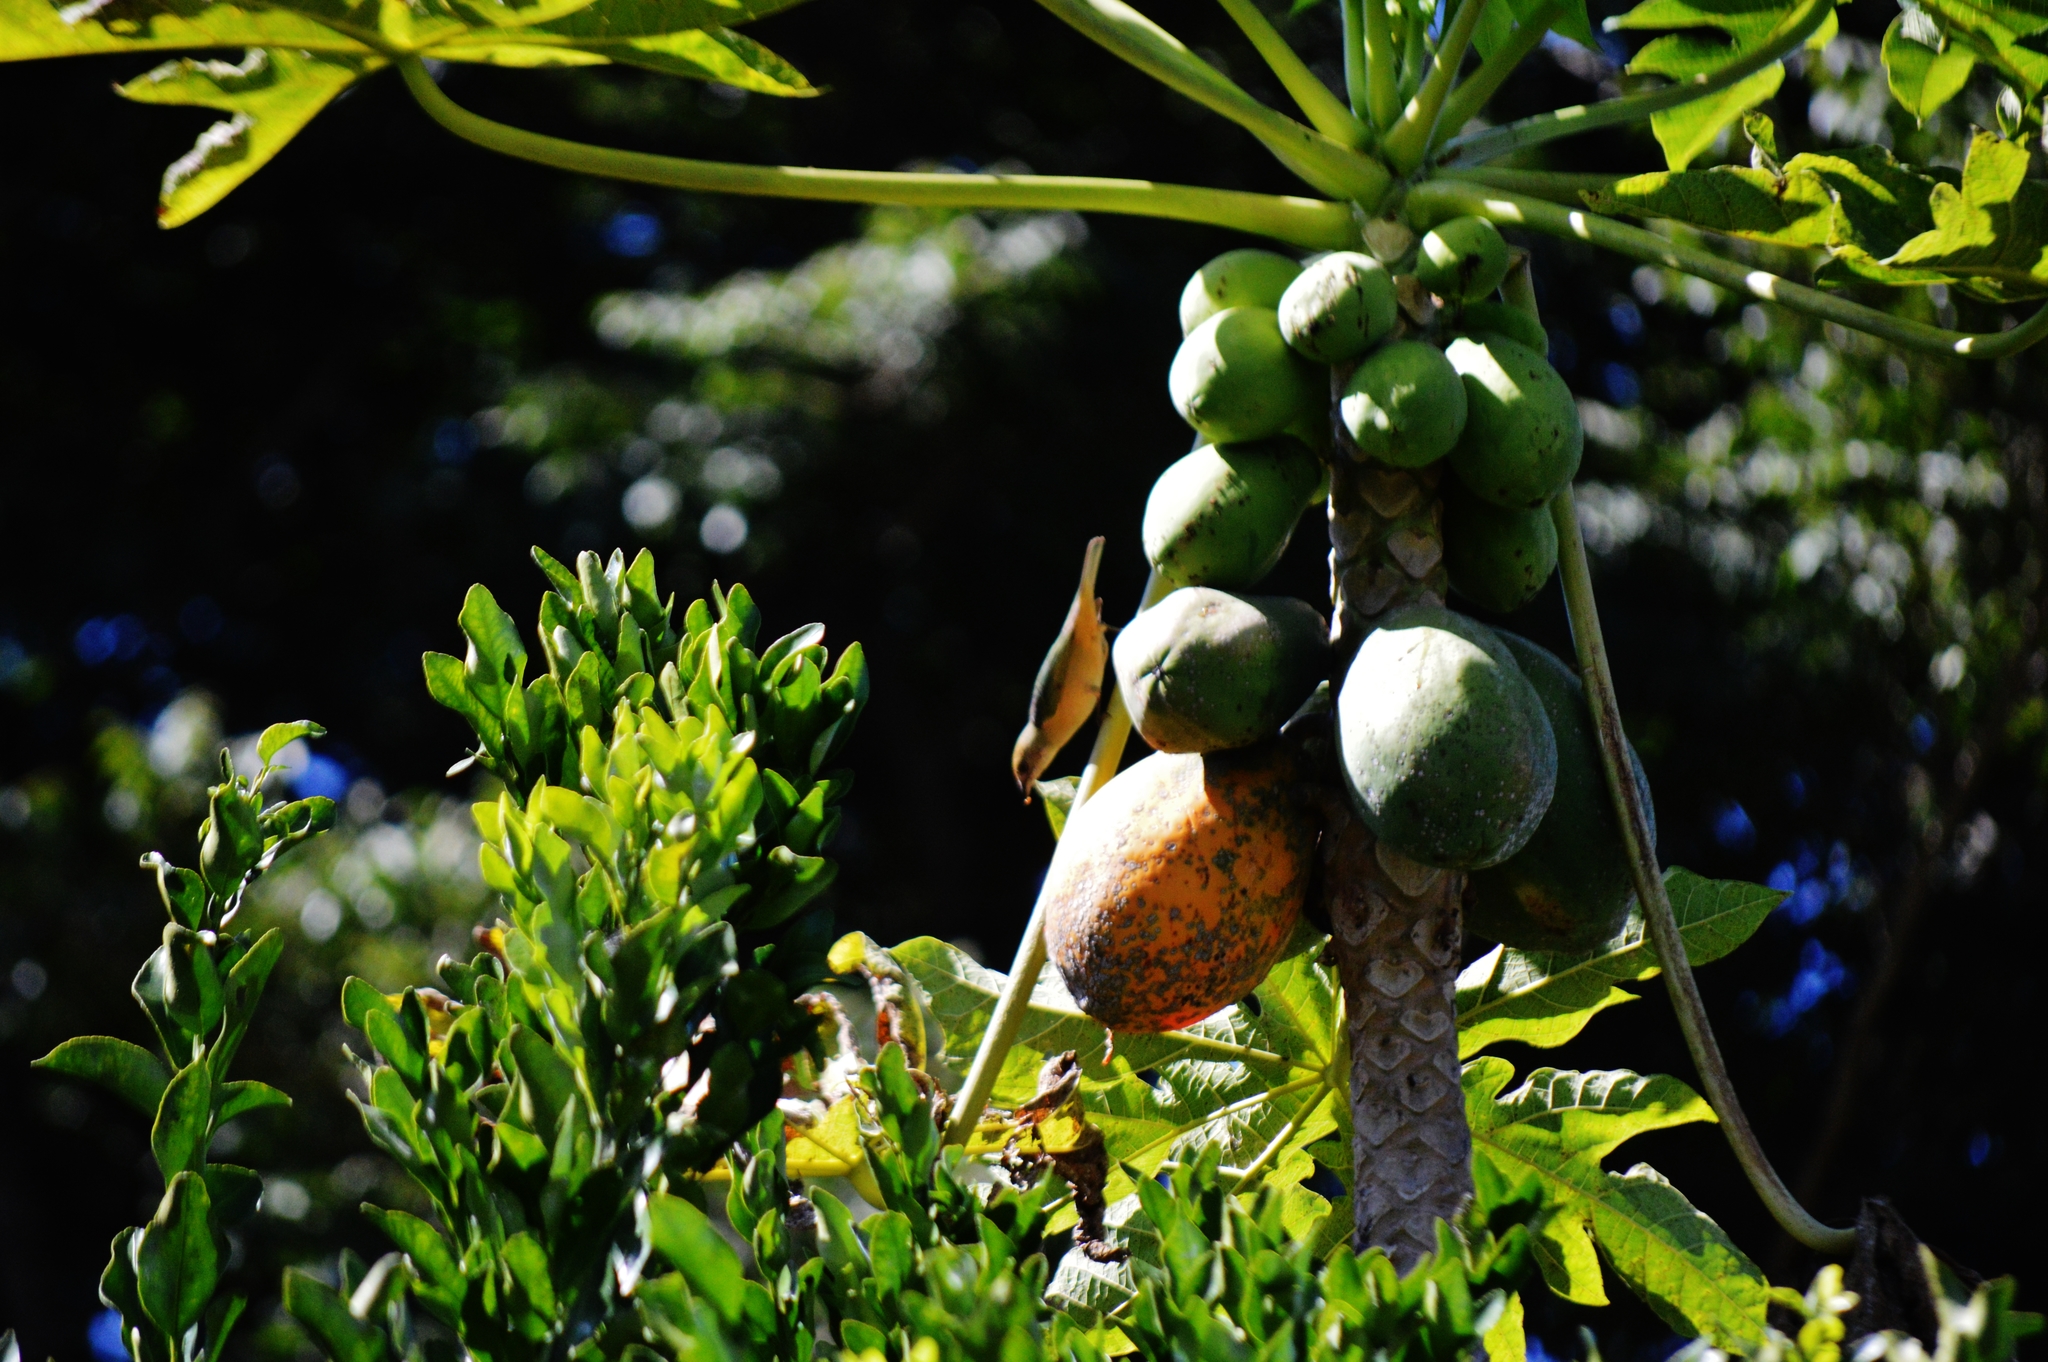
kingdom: Animalia
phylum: Chordata
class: Aves
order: Passeriformes
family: Thraupidae
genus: Stilpnia
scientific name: Stilpnia cayana
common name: Burnished-buff tanager
